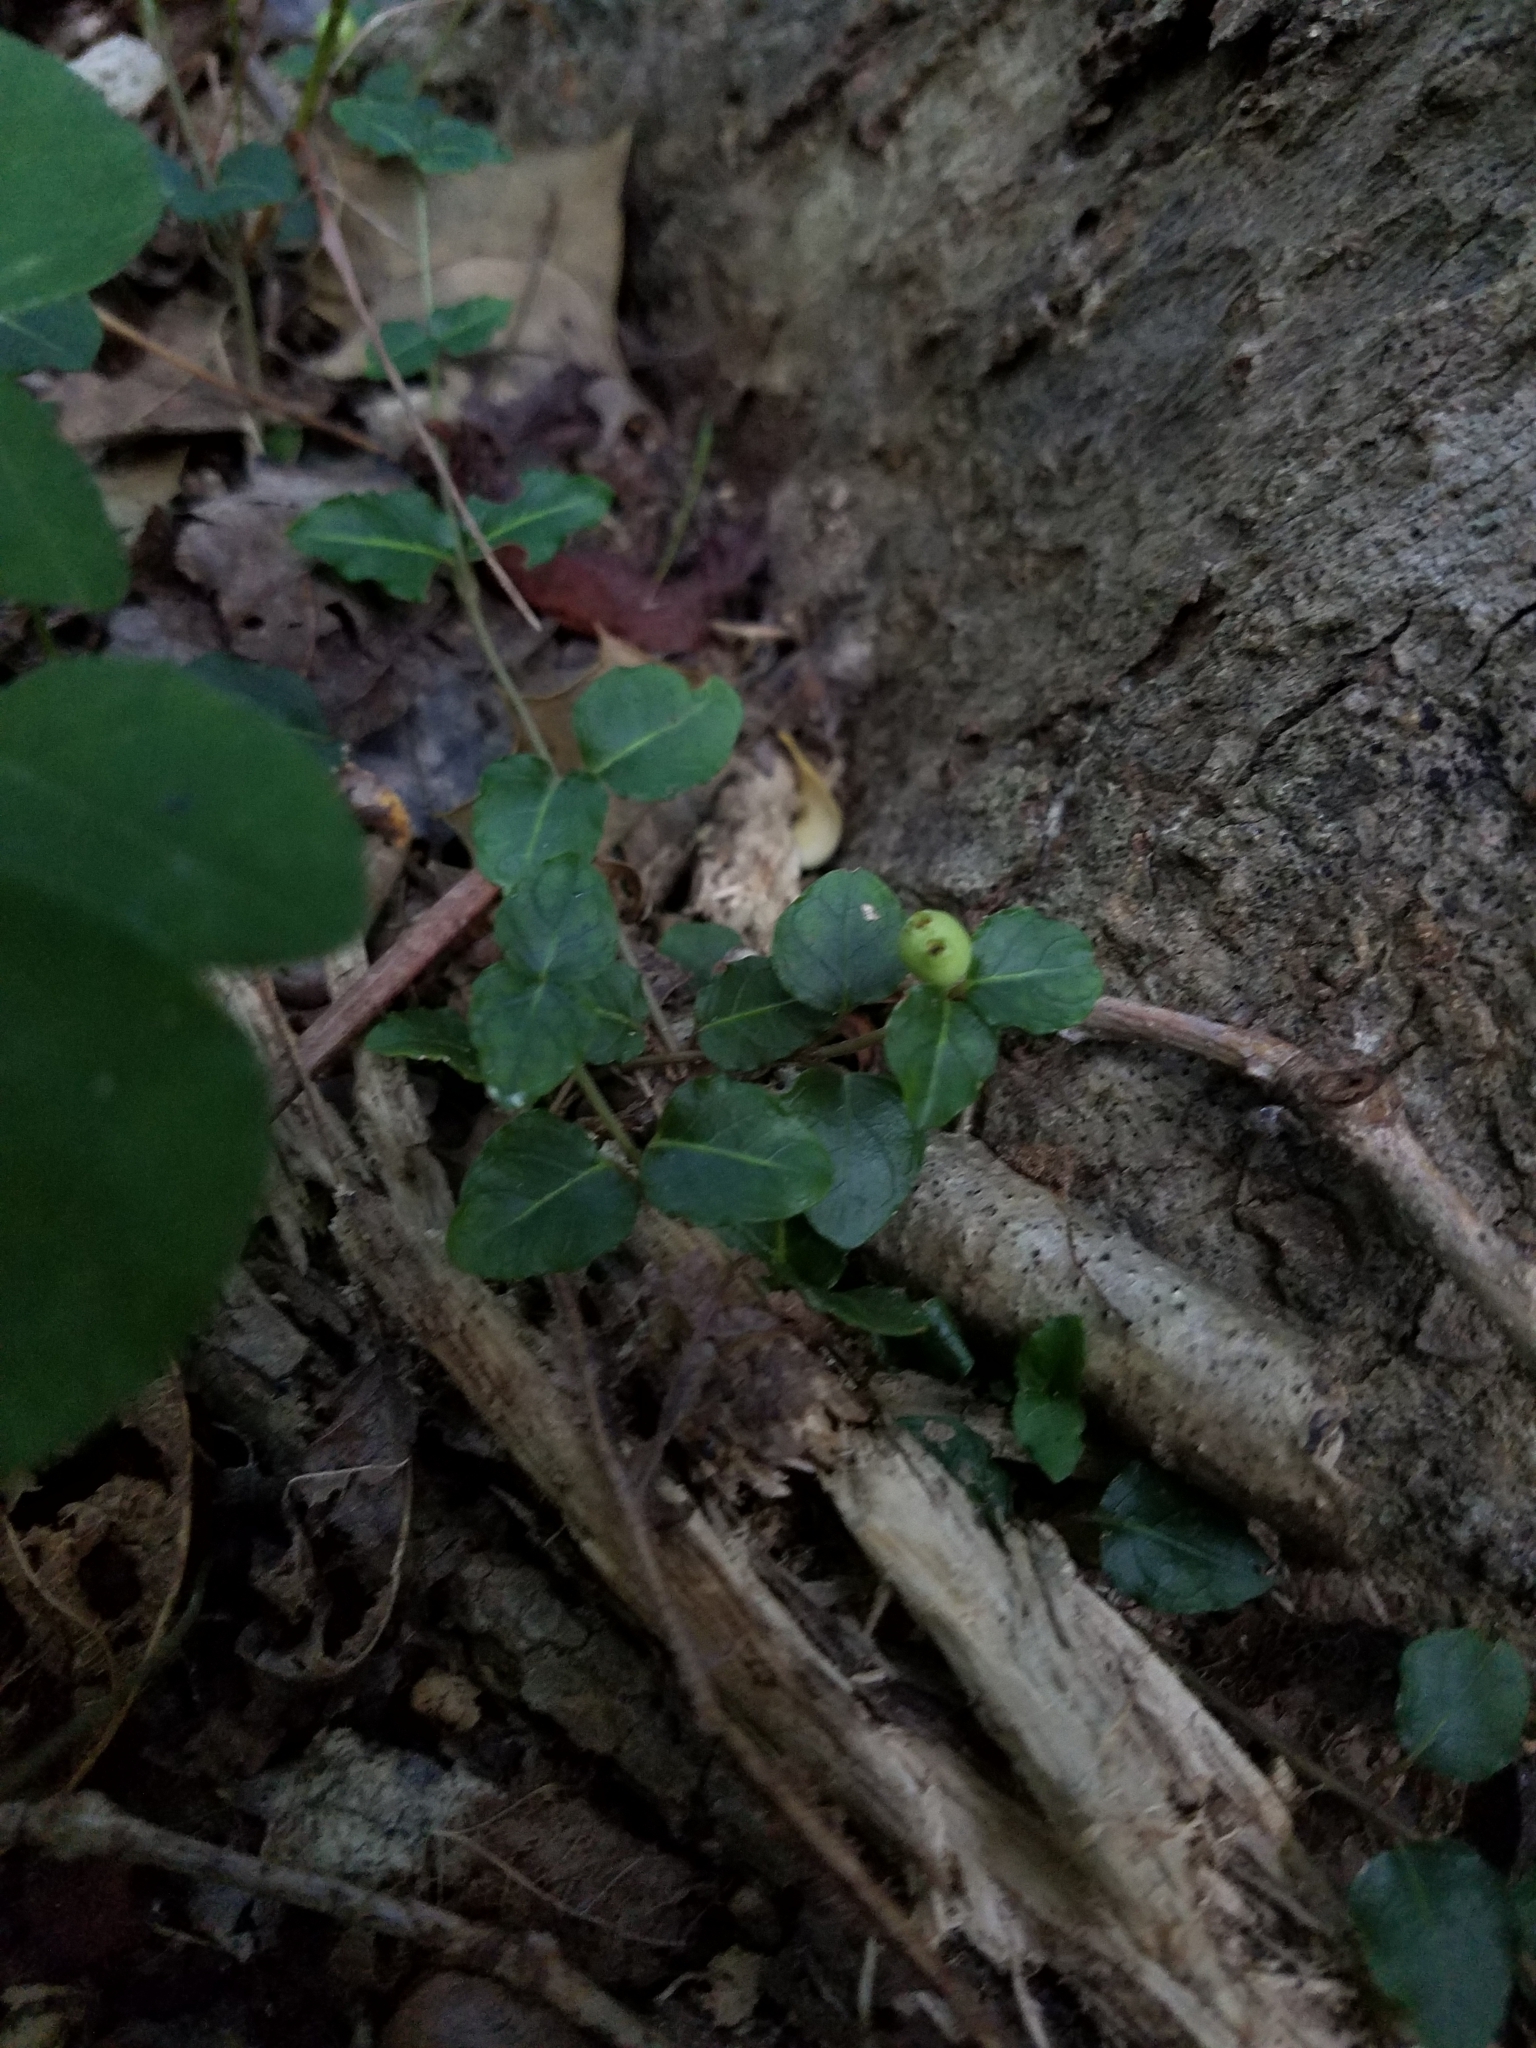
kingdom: Plantae
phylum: Tracheophyta
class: Magnoliopsida
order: Gentianales
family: Rubiaceae
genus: Mitchella
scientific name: Mitchella repens
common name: Partridge-berry
